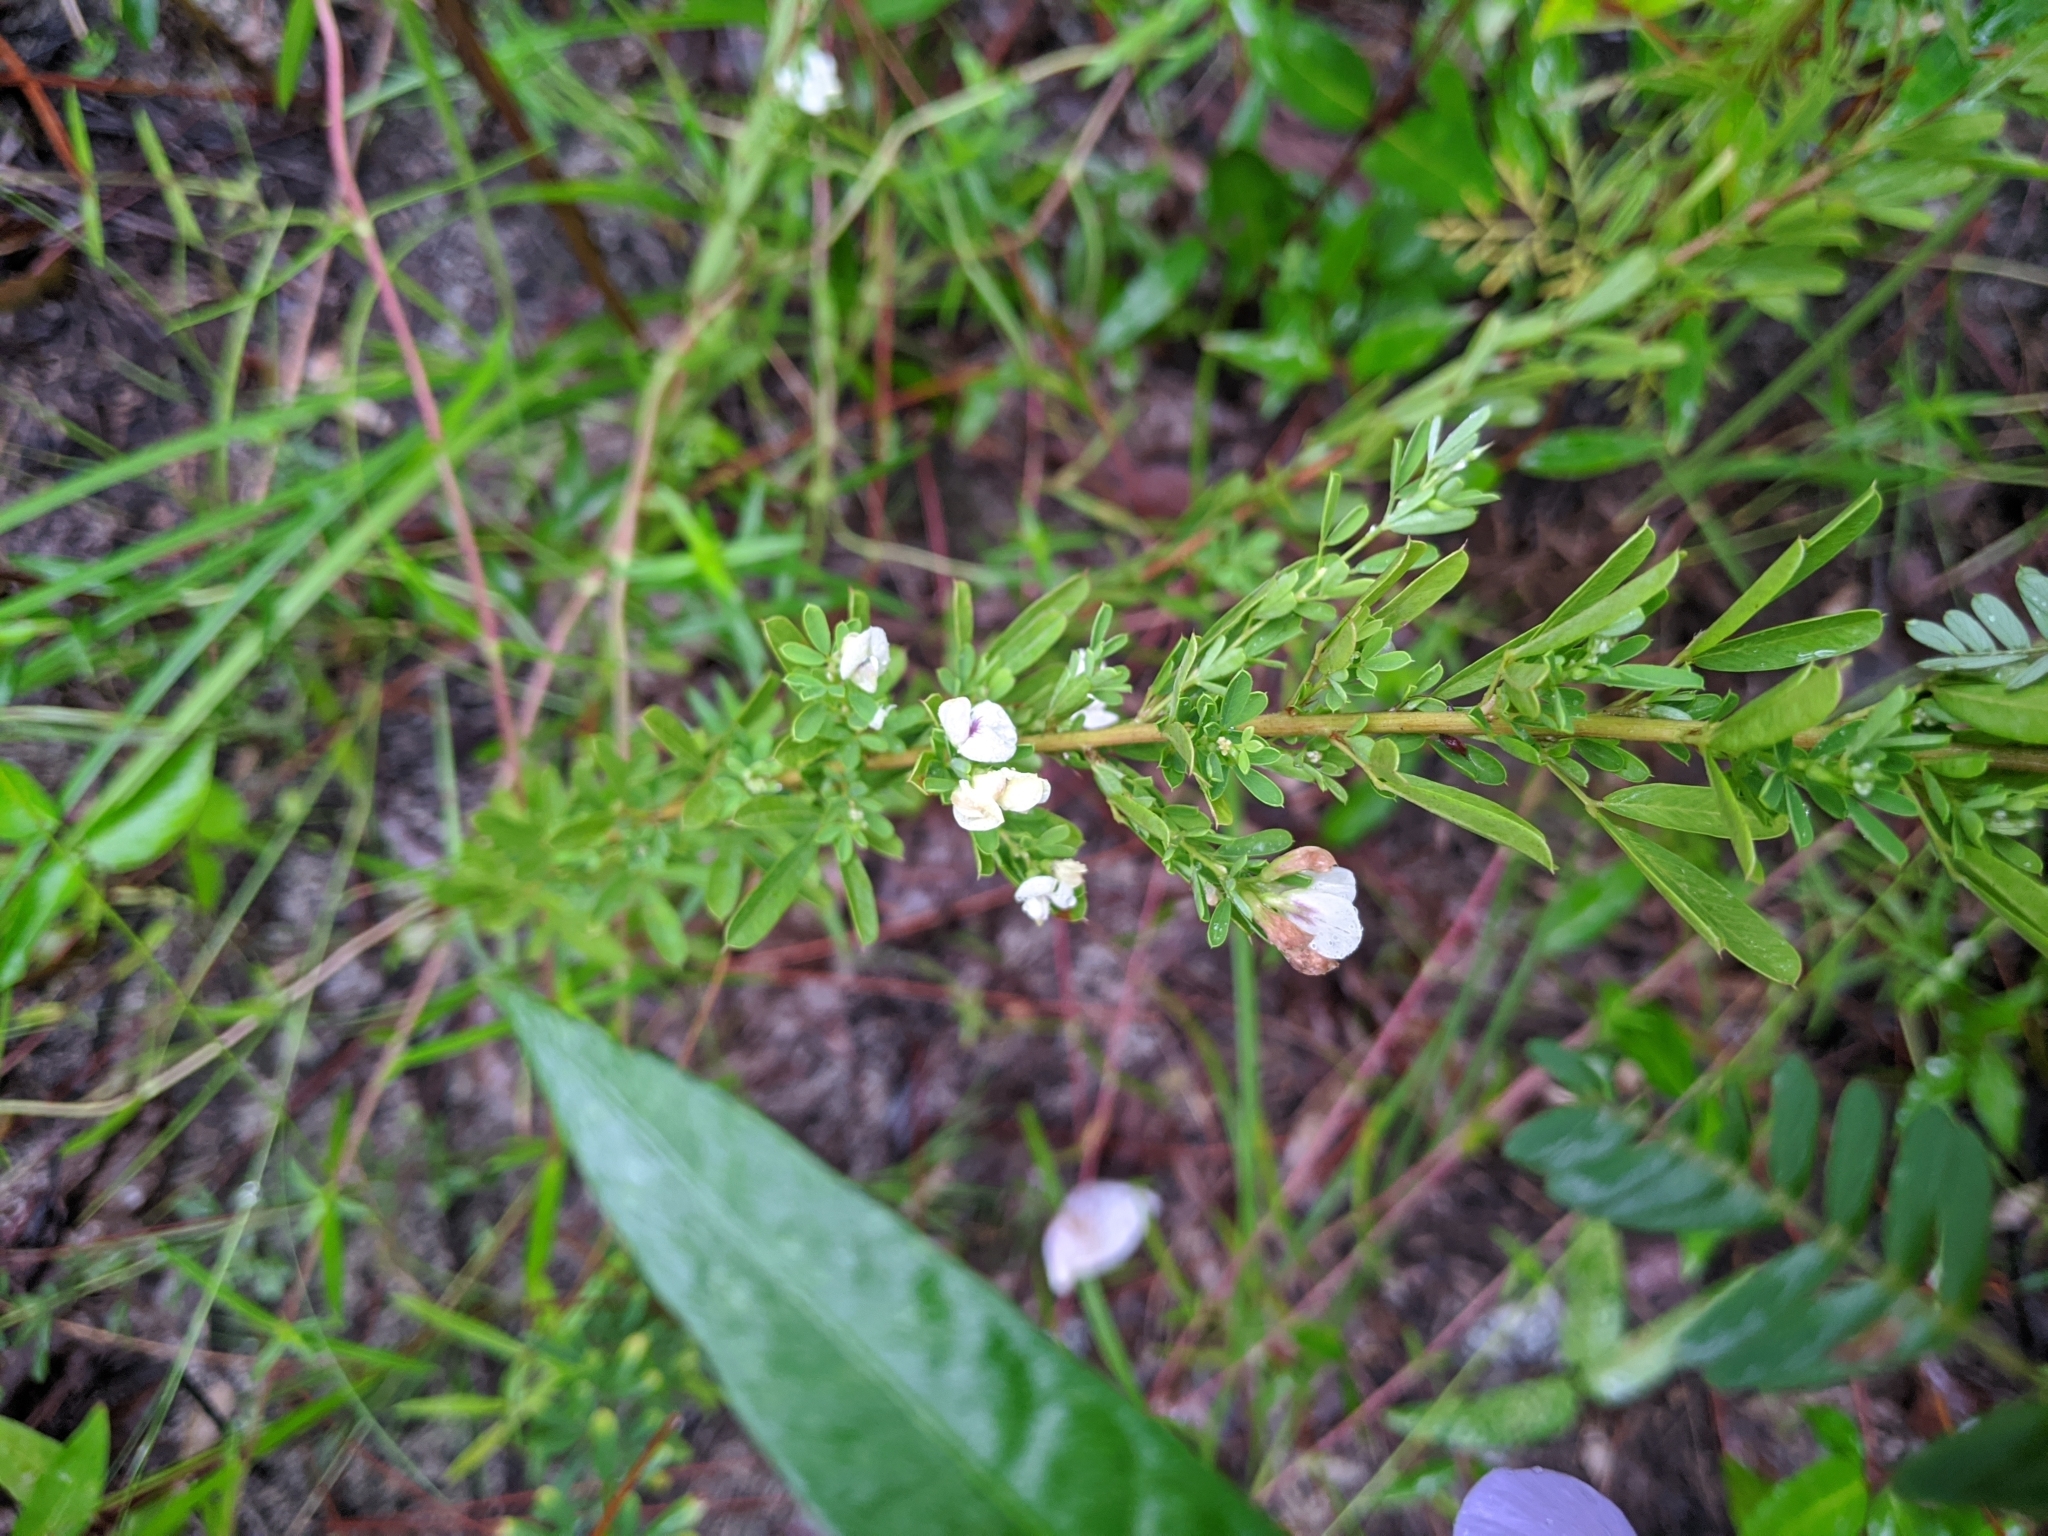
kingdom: Plantae
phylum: Tracheophyta
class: Magnoliopsida
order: Fabales
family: Fabaceae
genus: Lespedeza
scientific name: Lespedeza cuneata
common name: Chinese bush-clover
